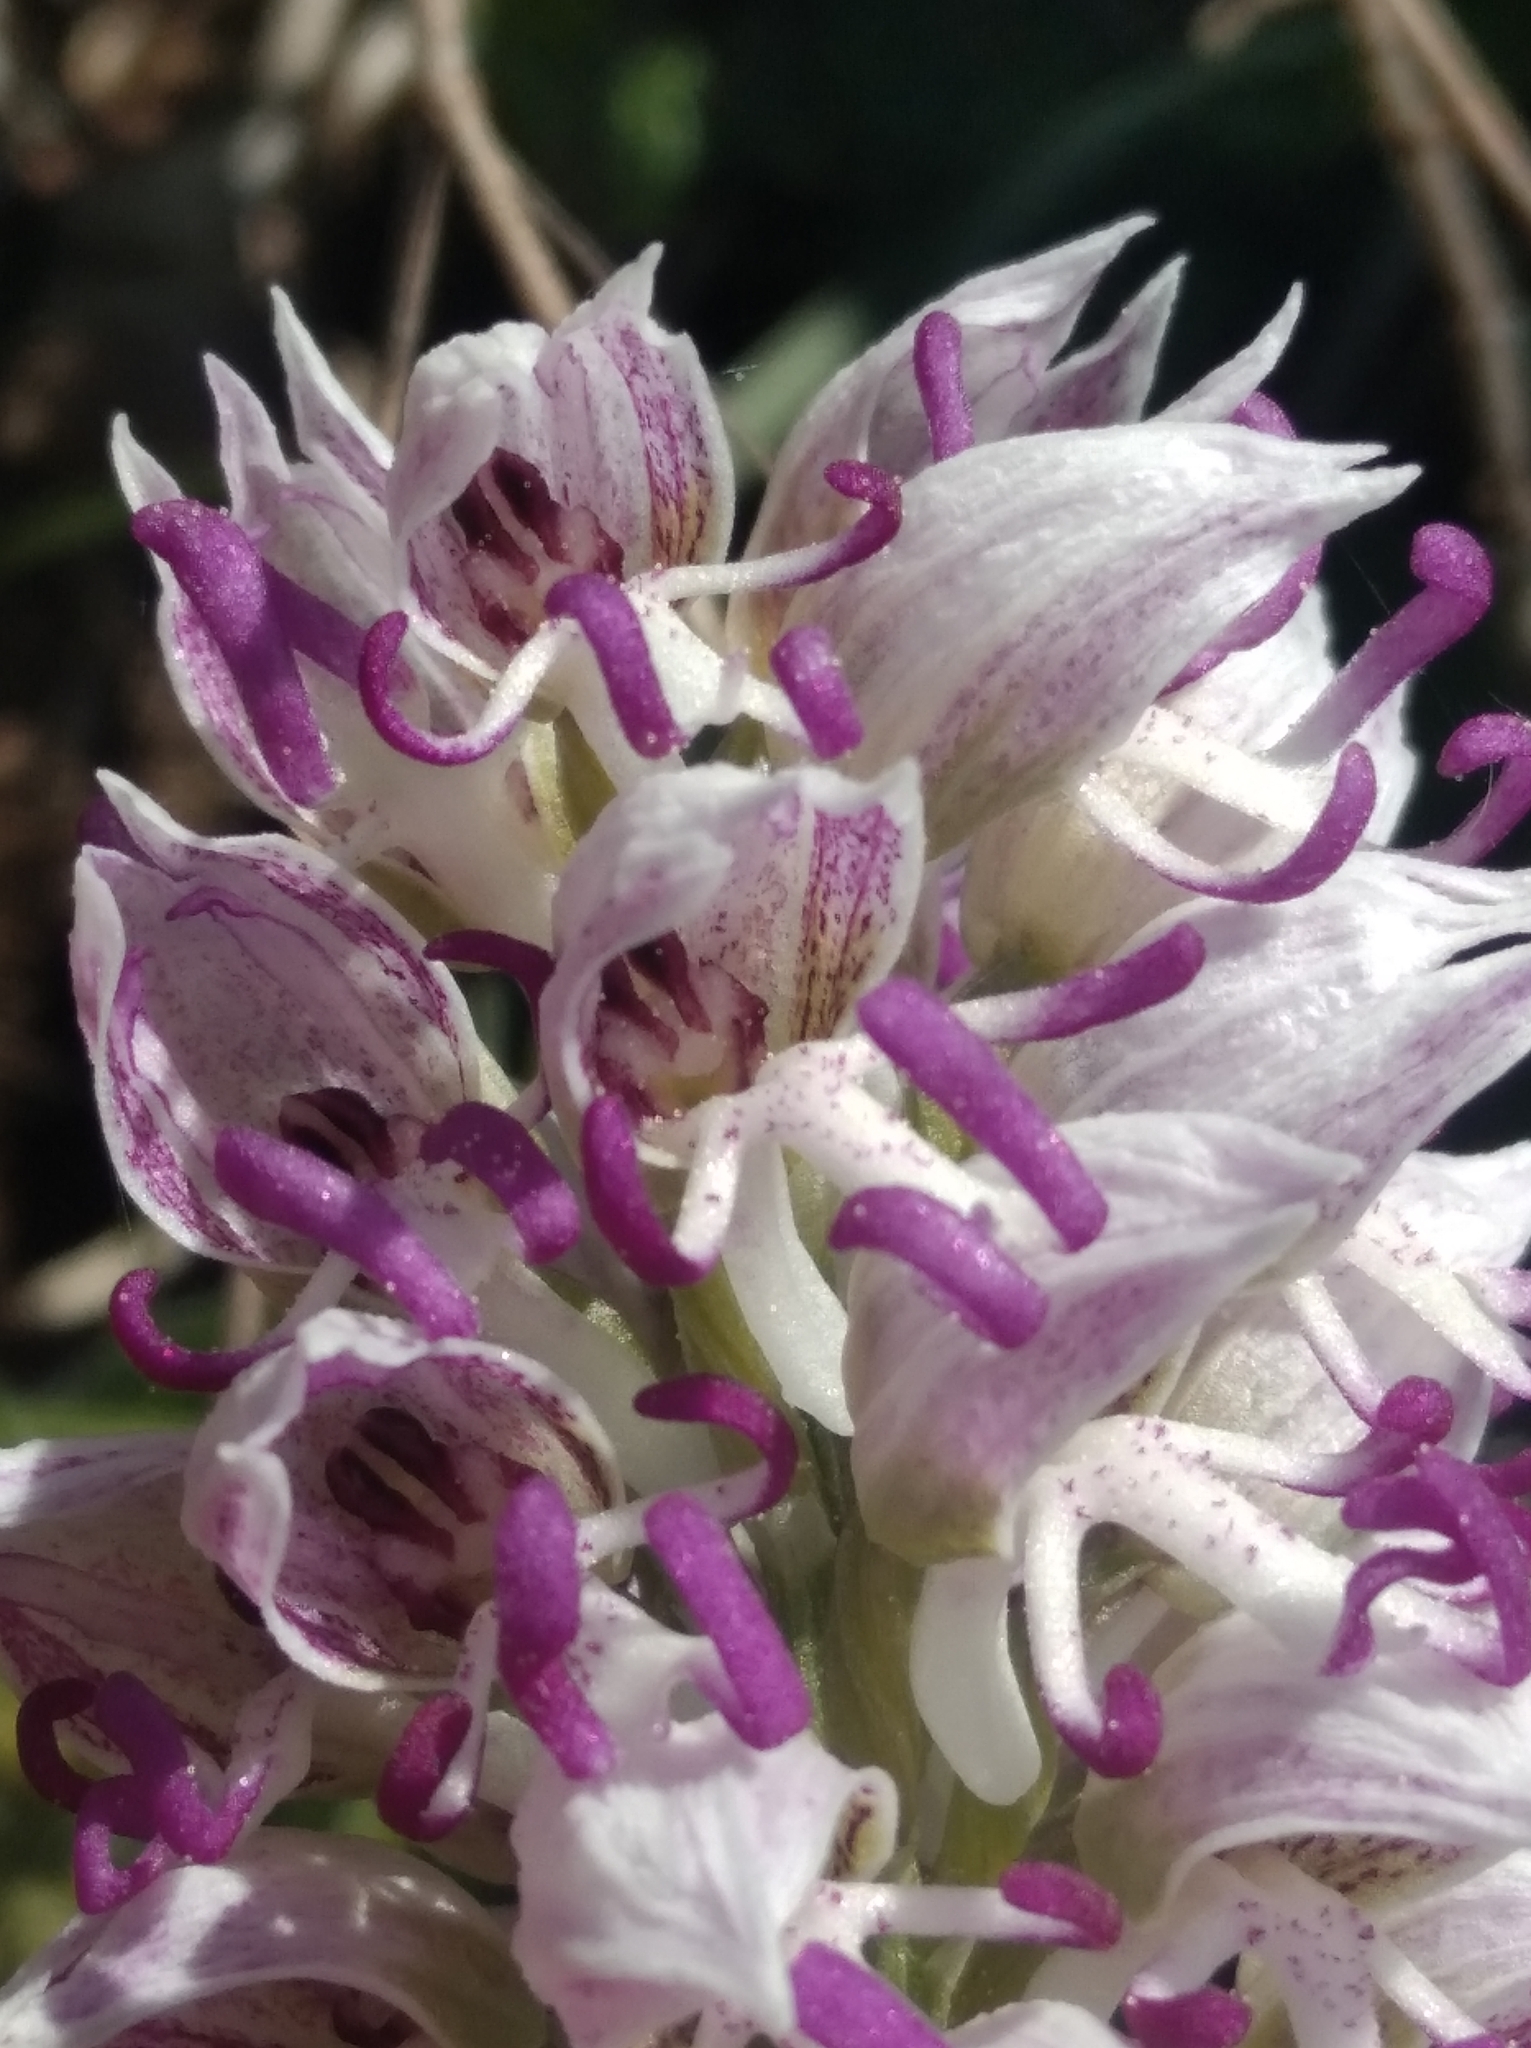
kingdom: Plantae
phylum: Tracheophyta
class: Liliopsida
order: Asparagales
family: Orchidaceae
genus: Orchis
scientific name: Orchis simia
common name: Monkey orchid
